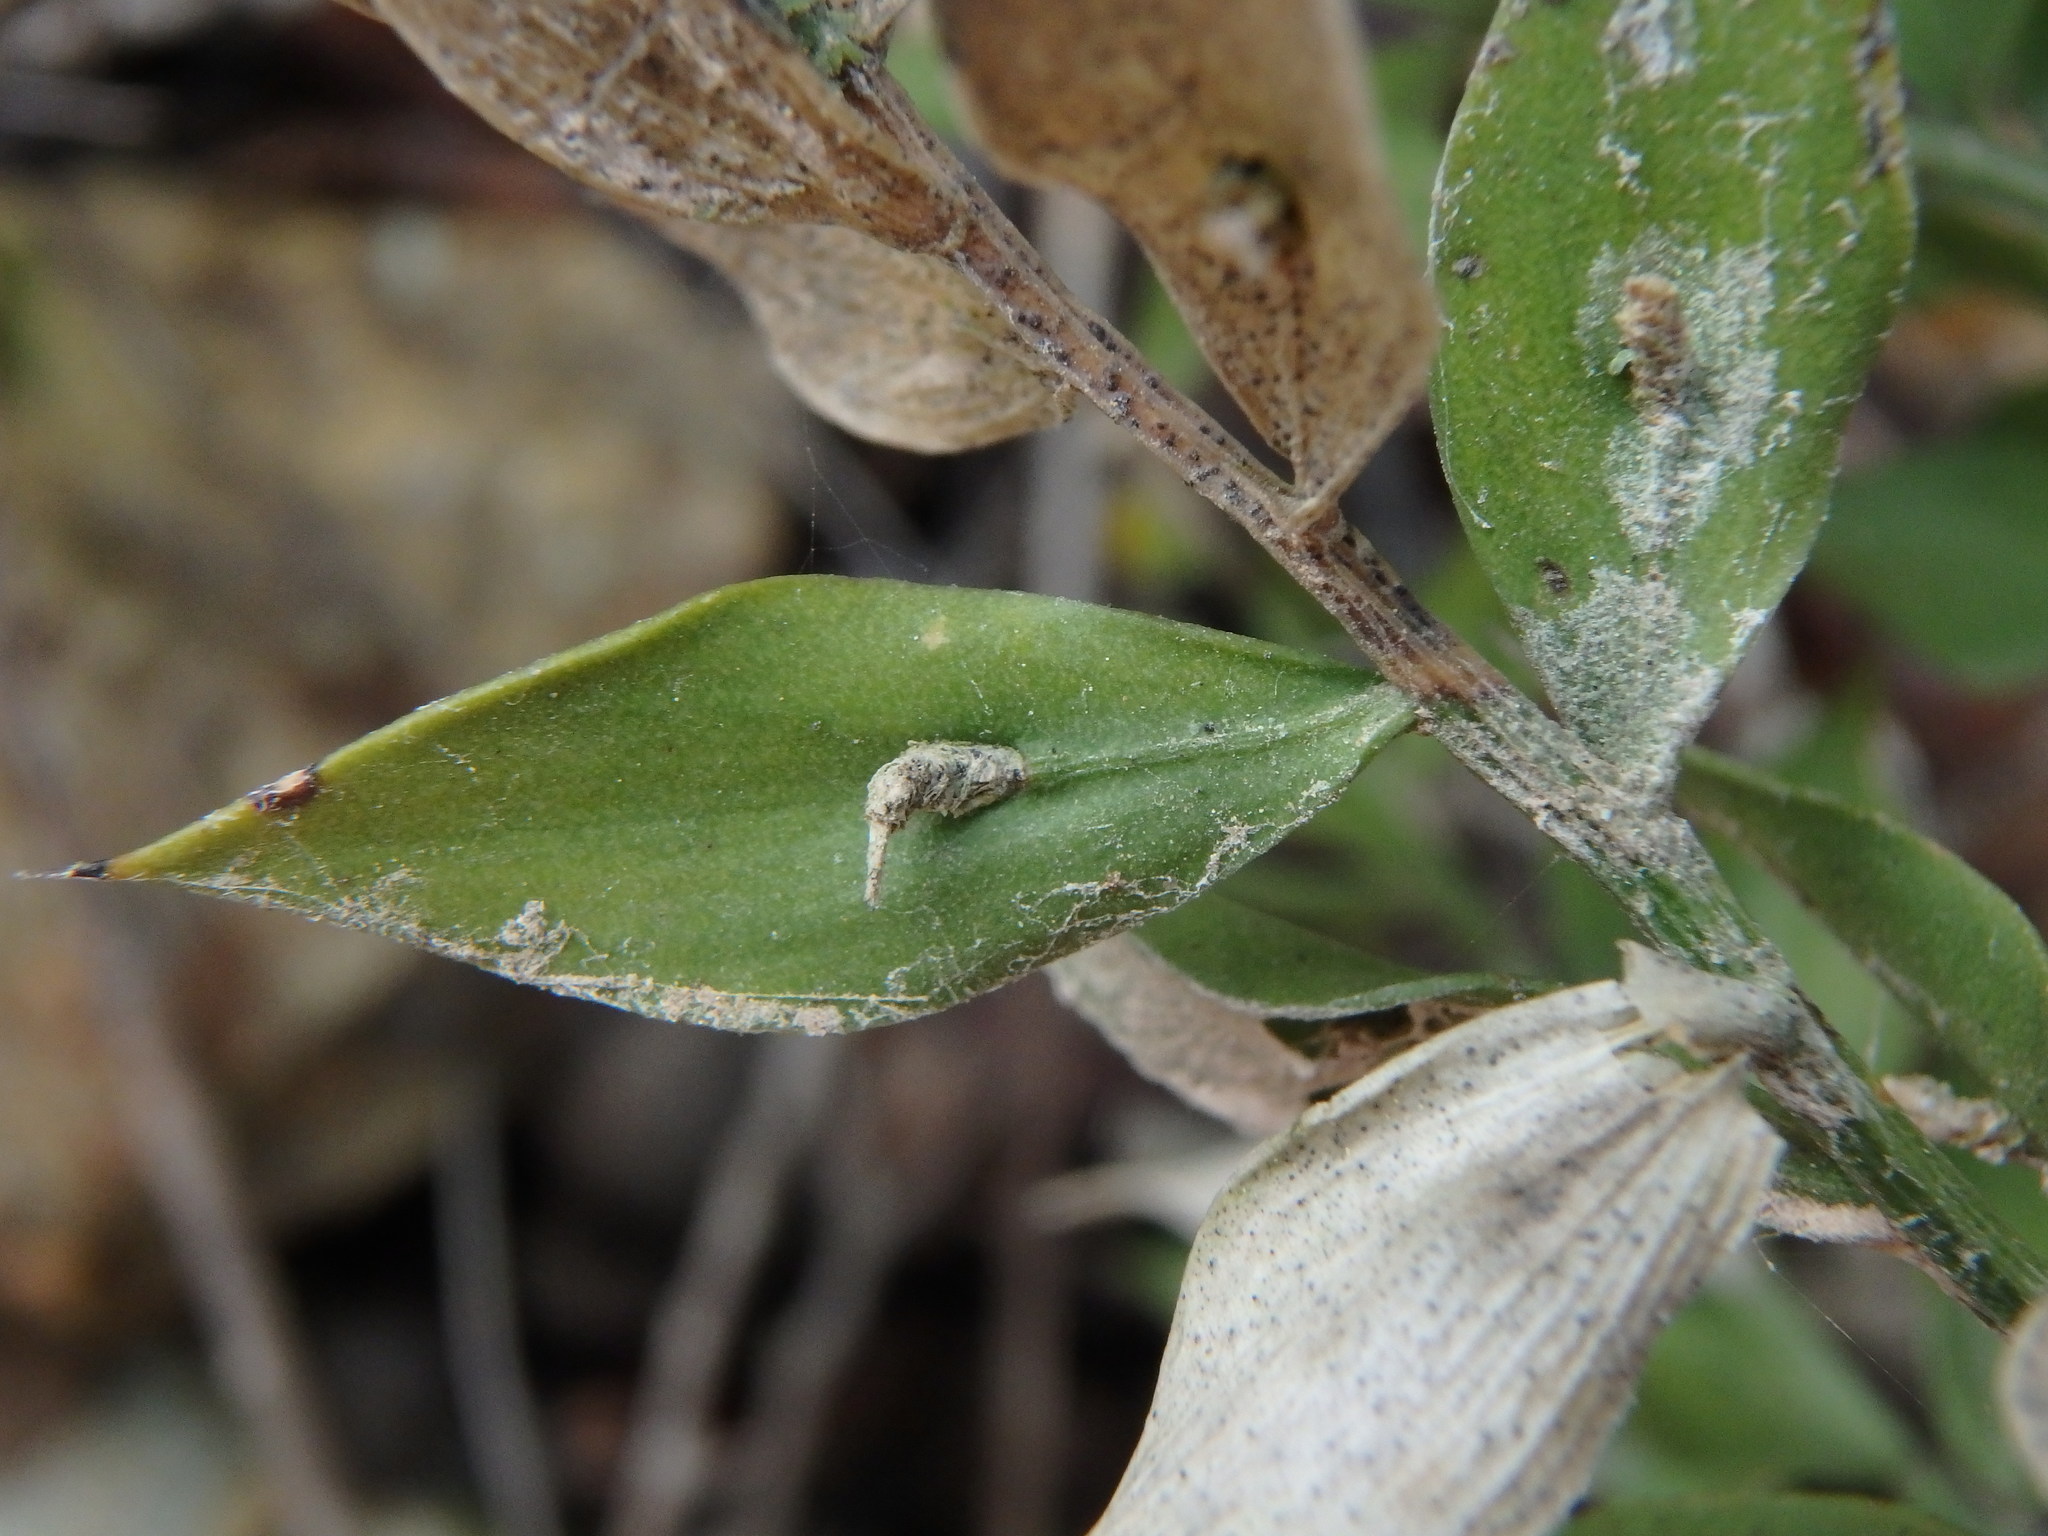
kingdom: Plantae
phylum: Tracheophyta
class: Liliopsida
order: Asparagales
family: Asparagaceae
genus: Ruscus
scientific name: Ruscus aculeatus
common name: Butcher's-broom
